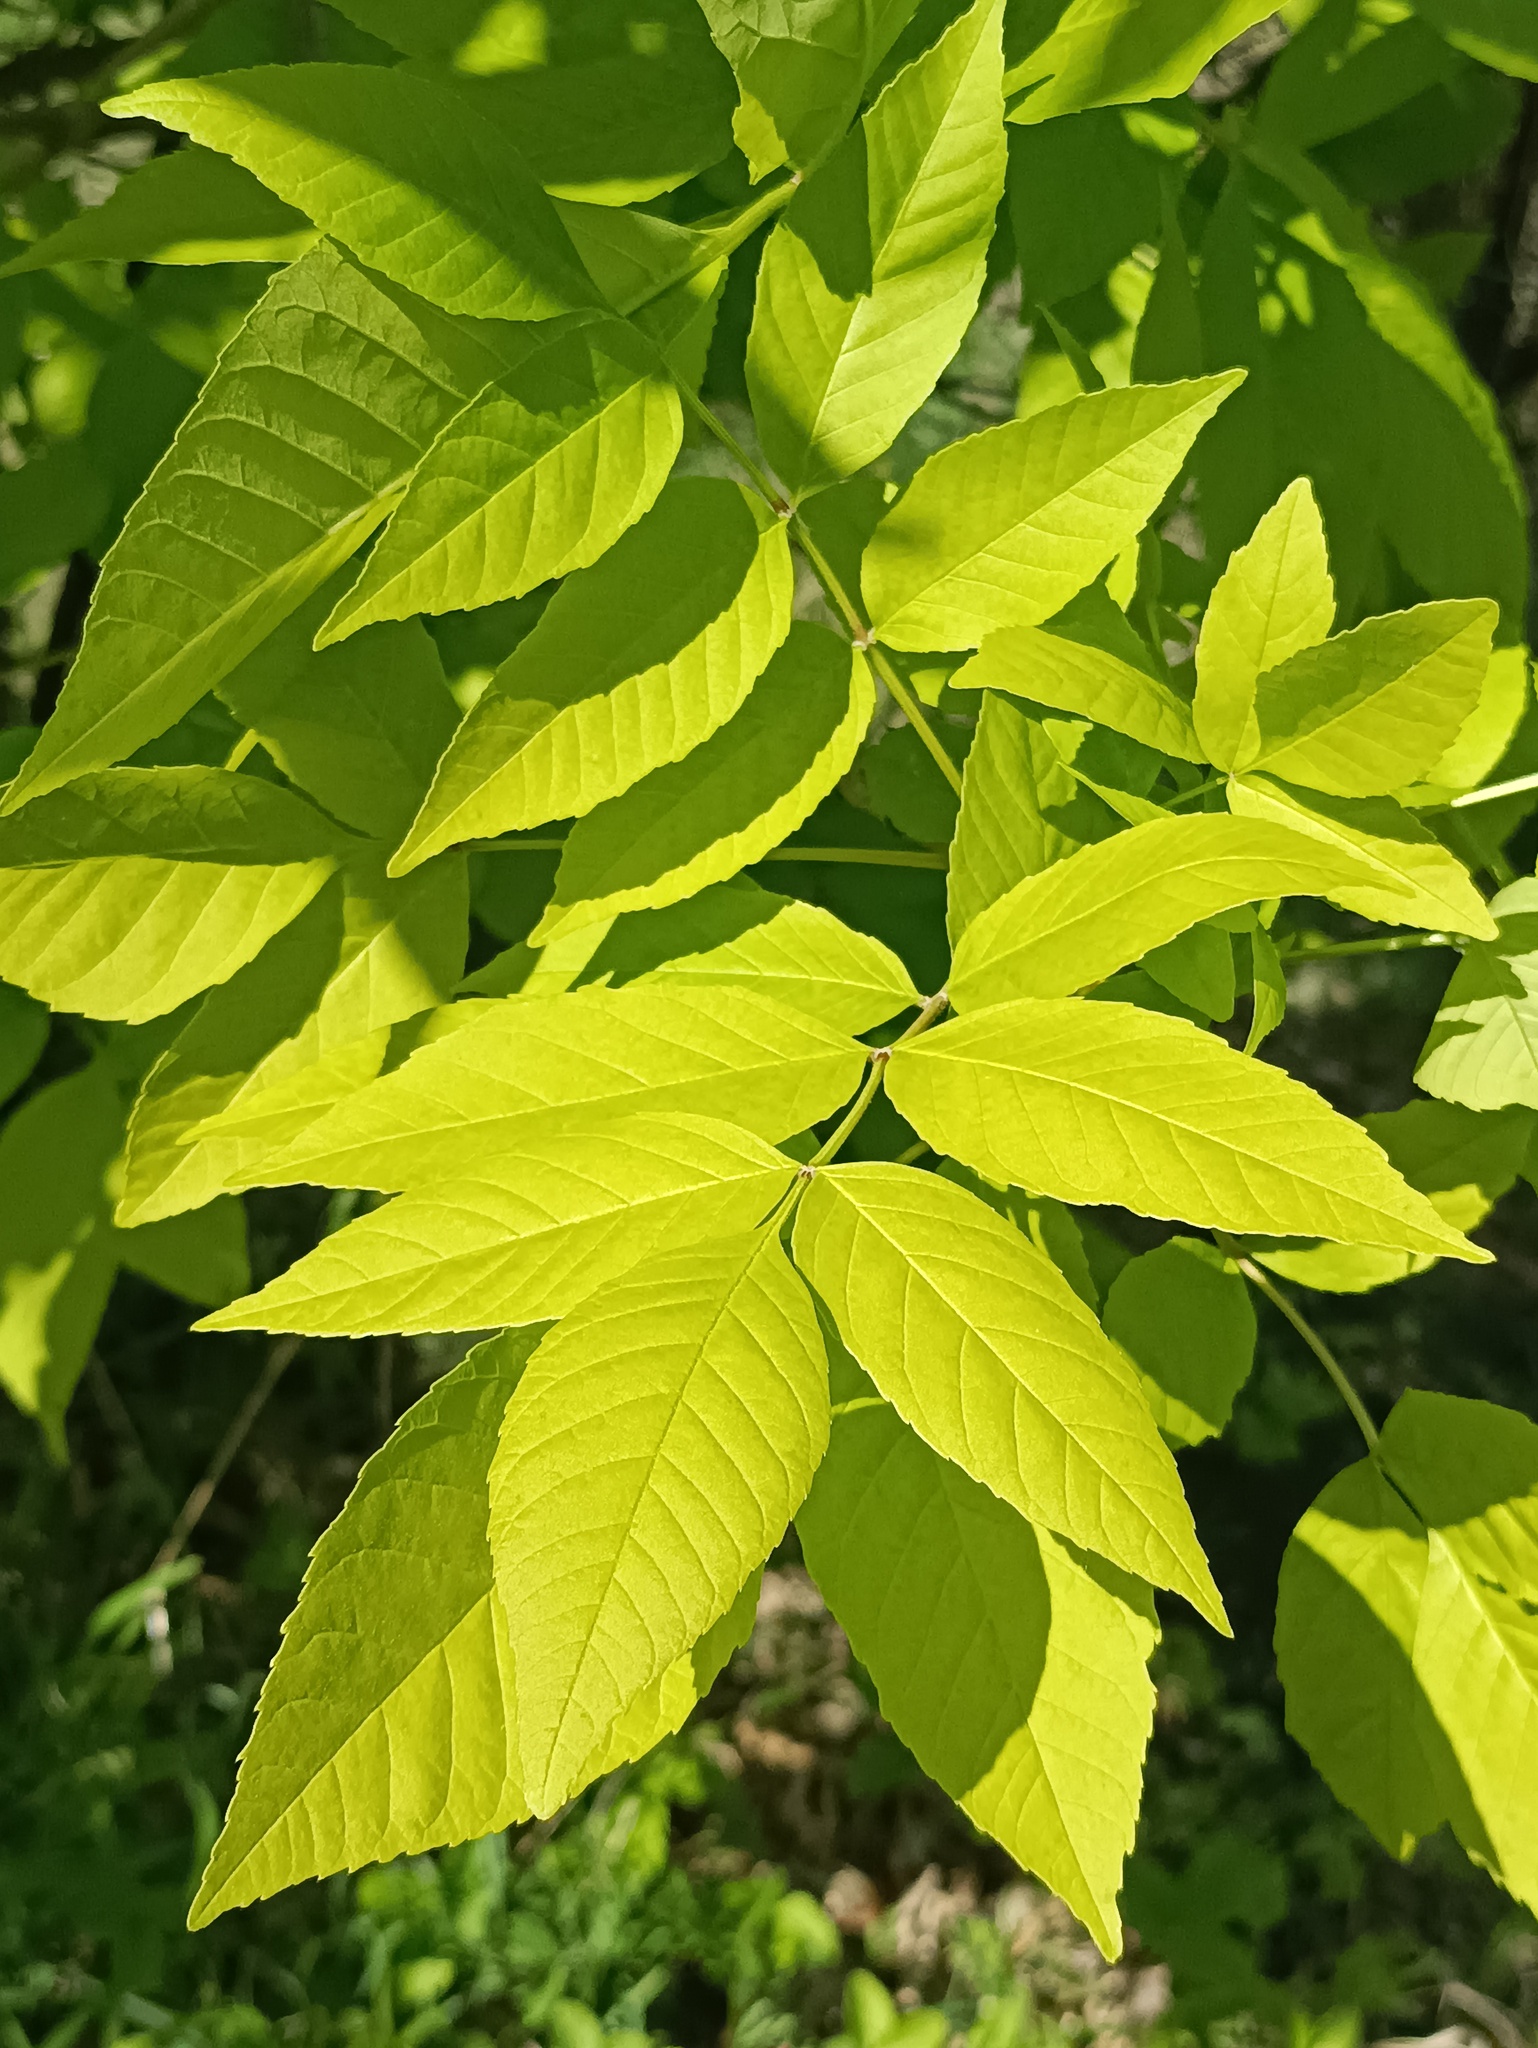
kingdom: Plantae
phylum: Tracheophyta
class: Magnoliopsida
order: Lamiales
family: Oleaceae
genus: Fraxinus
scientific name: Fraxinus pennsylvanica
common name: Green ash
